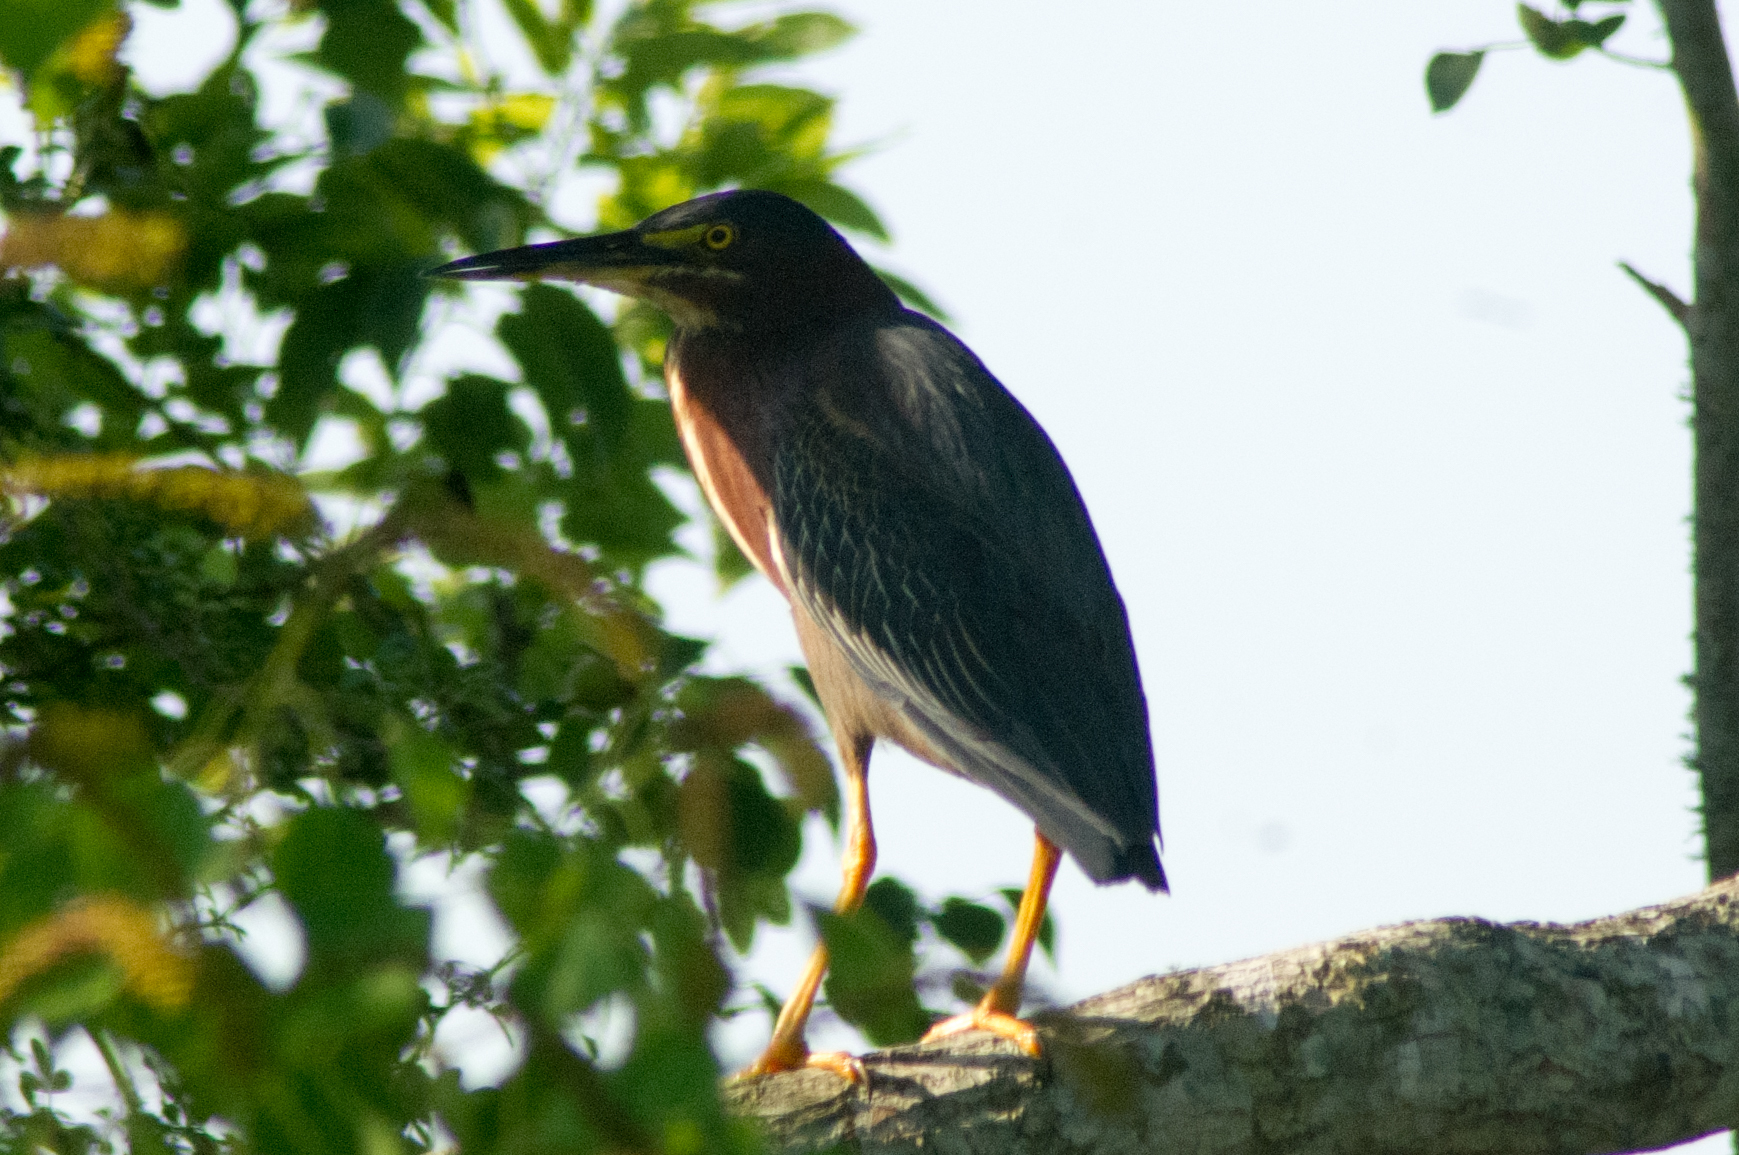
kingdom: Animalia
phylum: Chordata
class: Aves
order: Pelecaniformes
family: Ardeidae
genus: Butorides
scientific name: Butorides virescens
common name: Green heron
